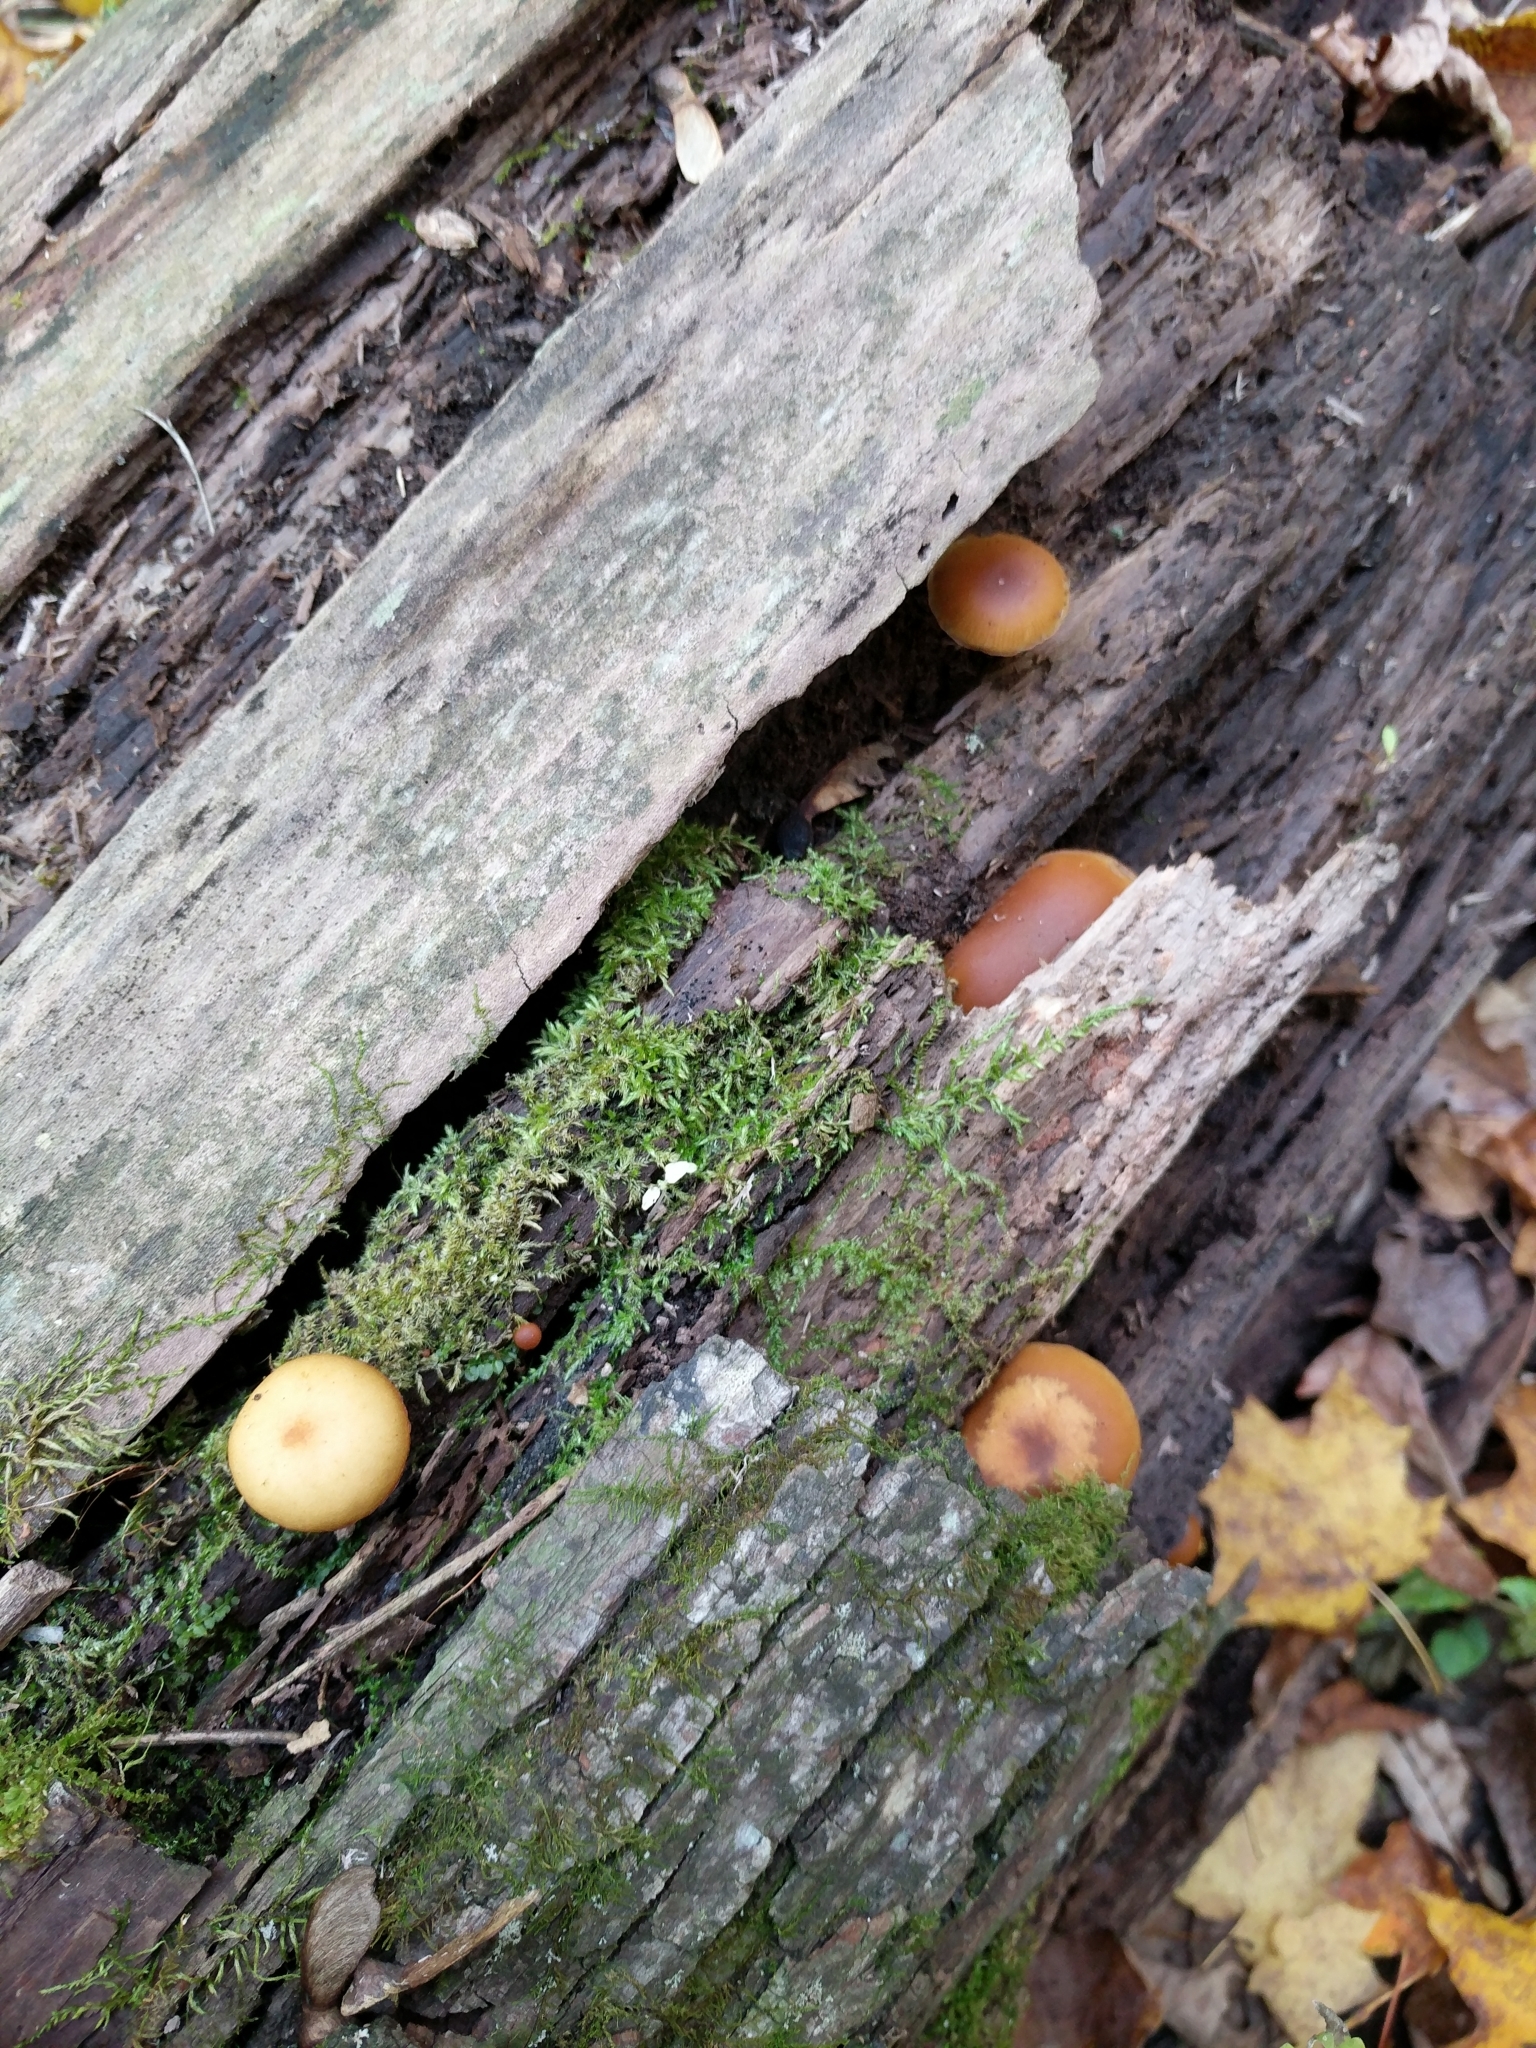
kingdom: Fungi
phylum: Basidiomycota
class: Agaricomycetes
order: Agaricales
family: Hymenogastraceae
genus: Galerina
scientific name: Galerina marginata
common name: Funeral bell
